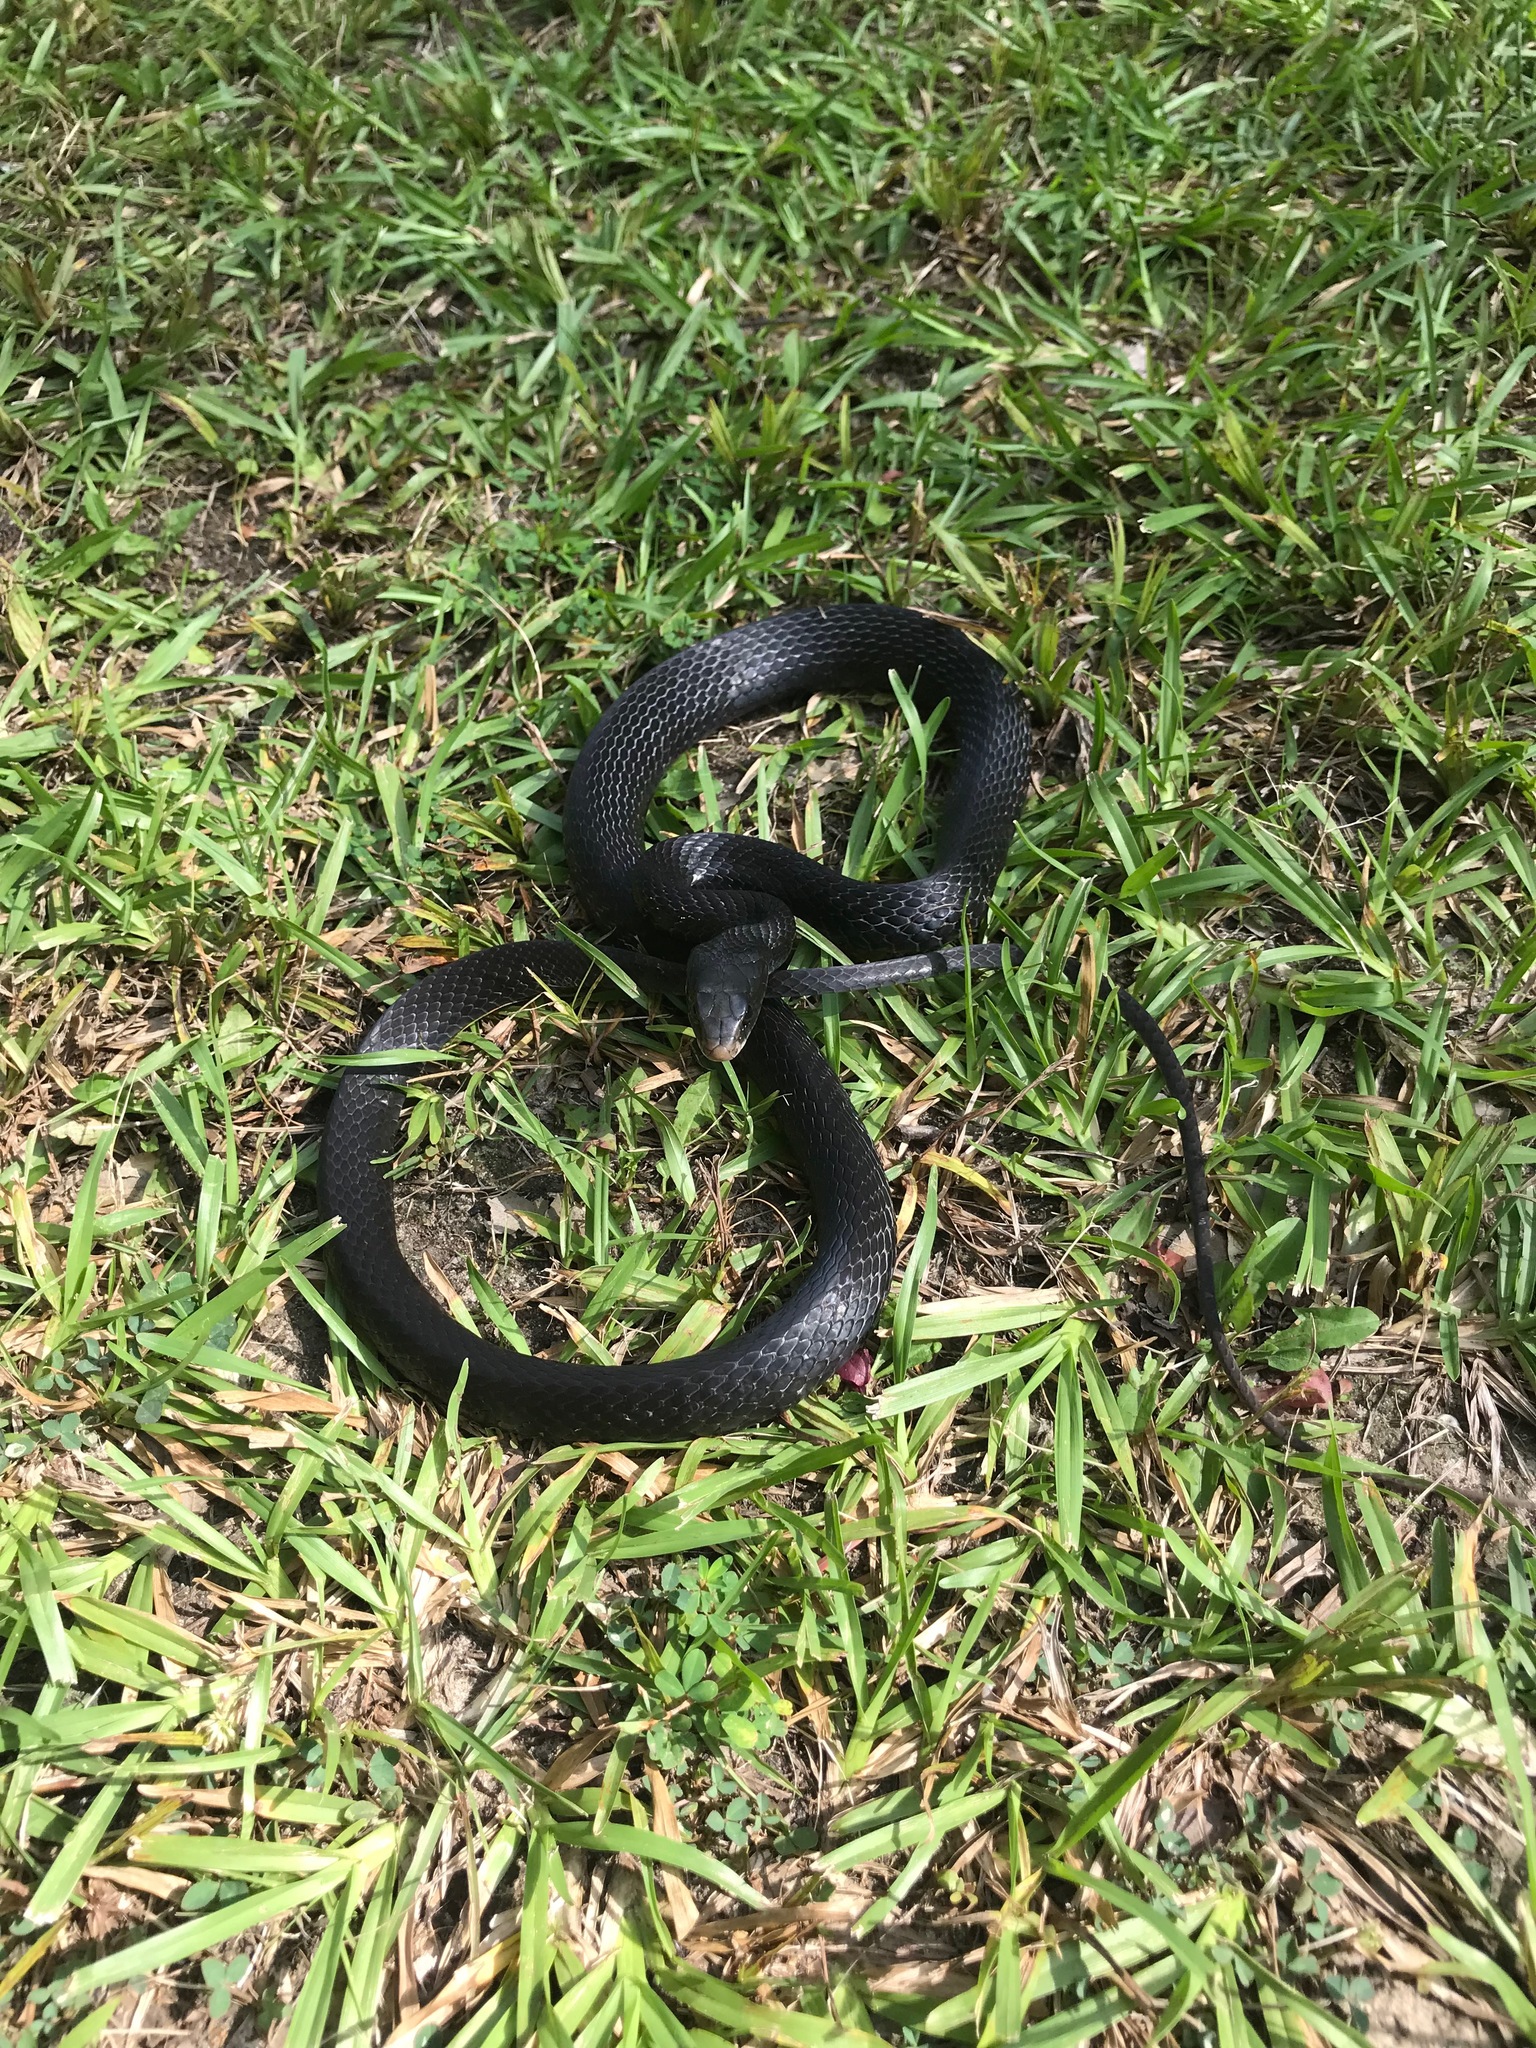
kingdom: Animalia
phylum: Chordata
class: Squamata
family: Colubridae
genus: Coluber
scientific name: Coluber constrictor
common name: Eastern racer
